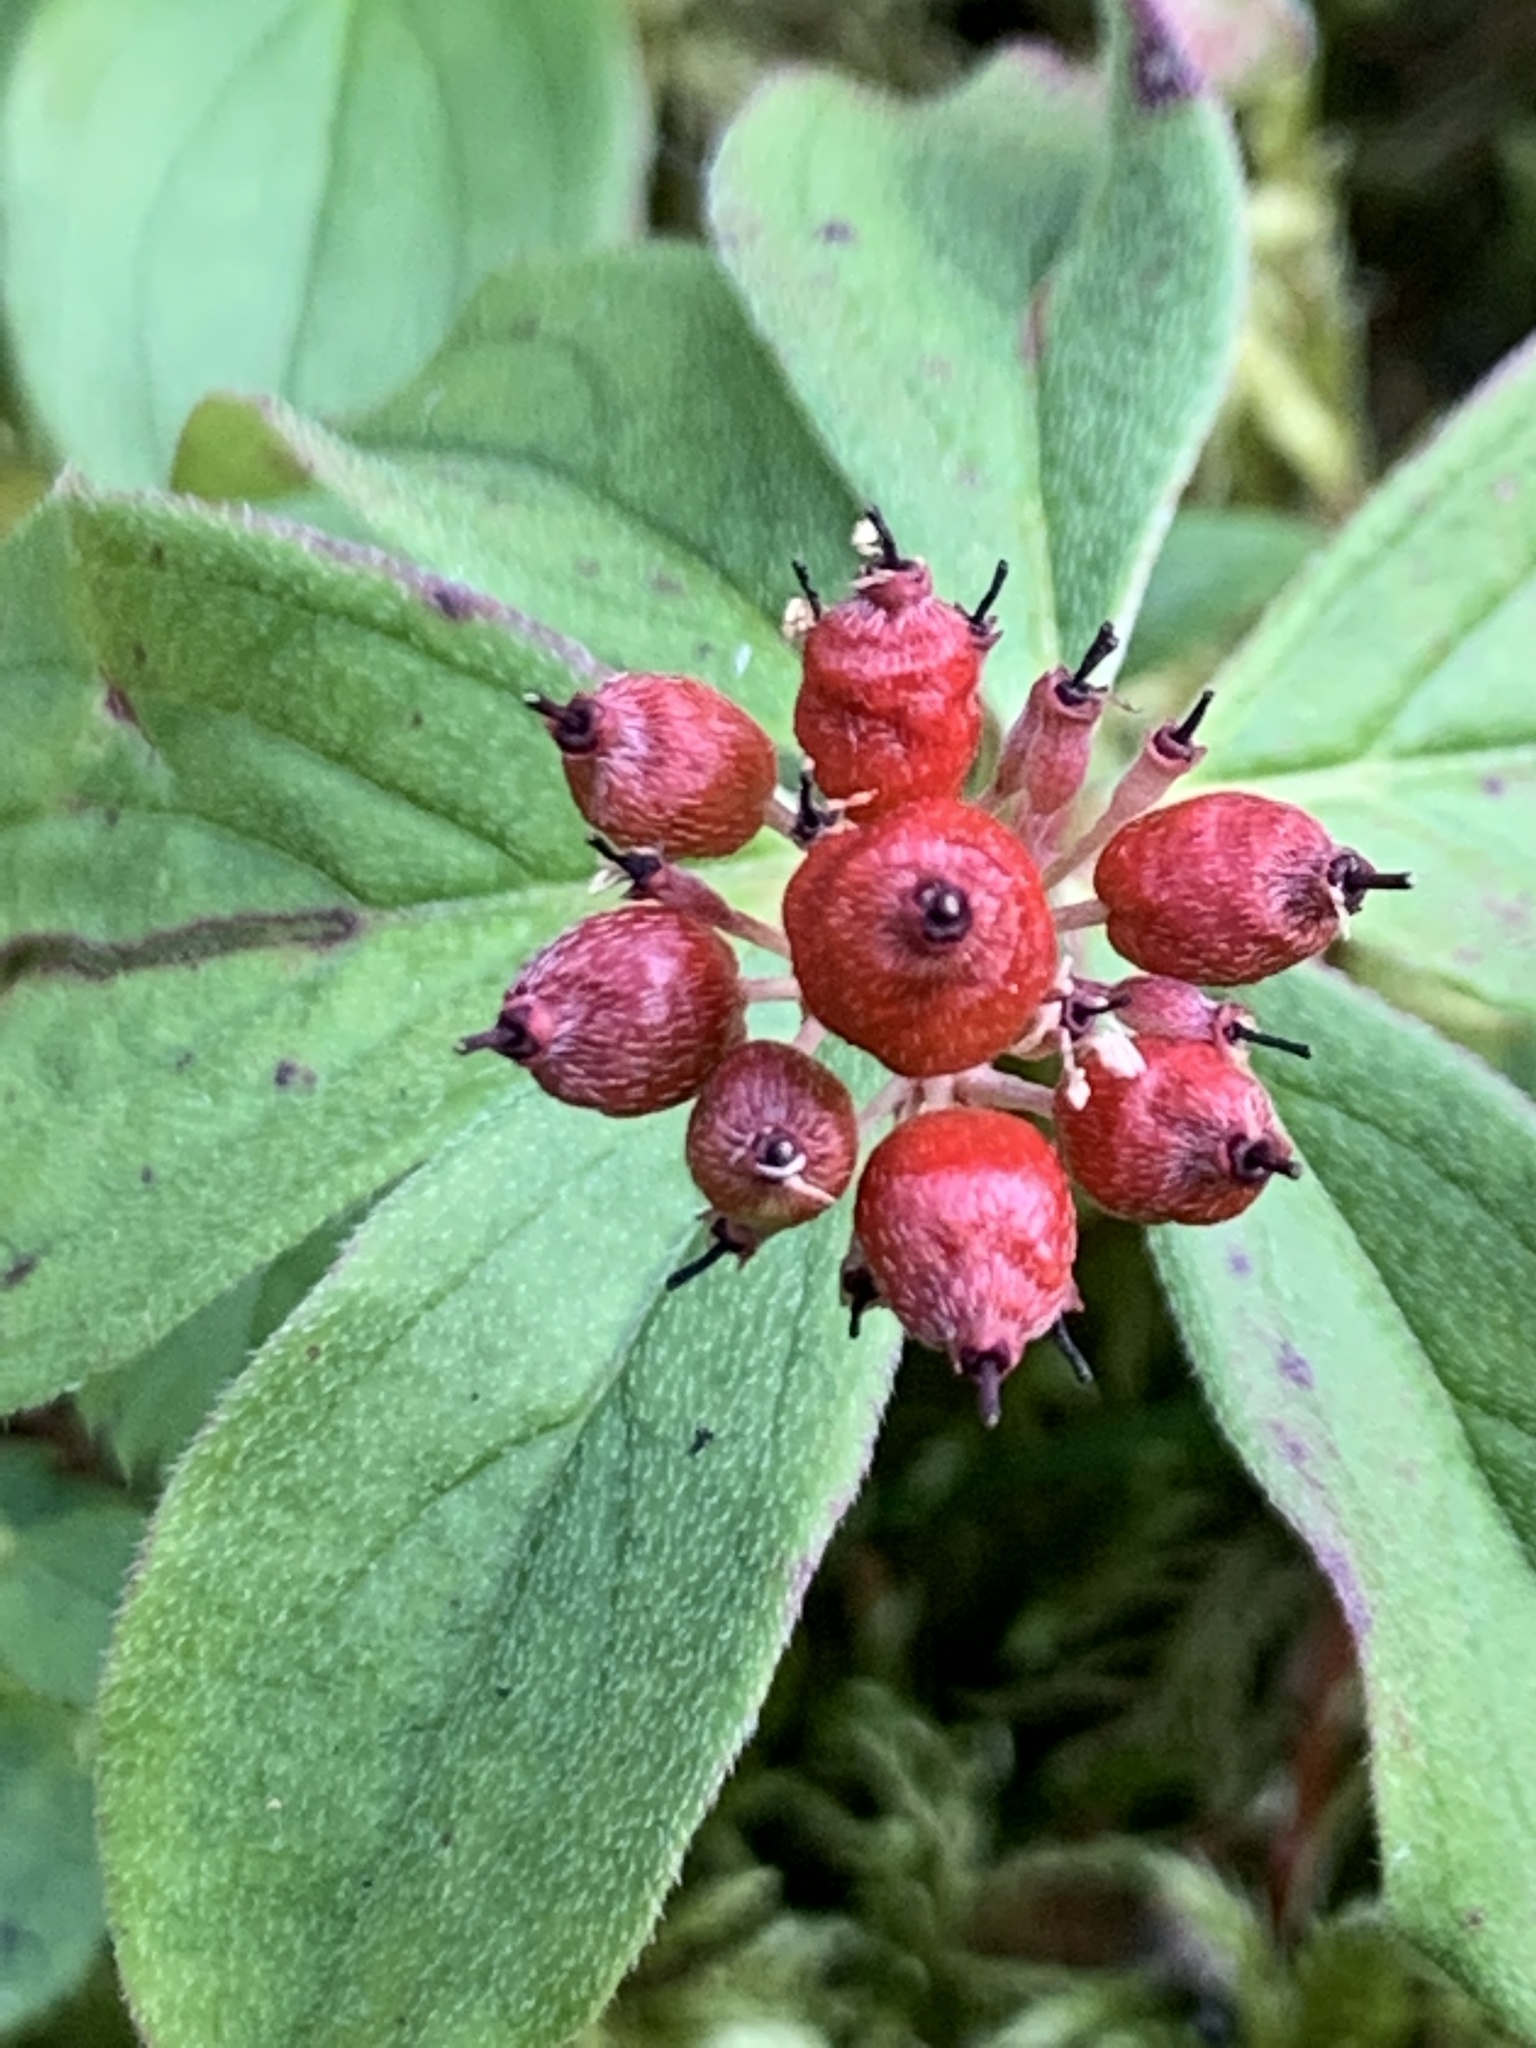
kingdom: Plantae
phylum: Tracheophyta
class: Magnoliopsida
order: Cornales
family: Cornaceae
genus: Cornus
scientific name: Cornus canadensis
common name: Creeping dogwood
